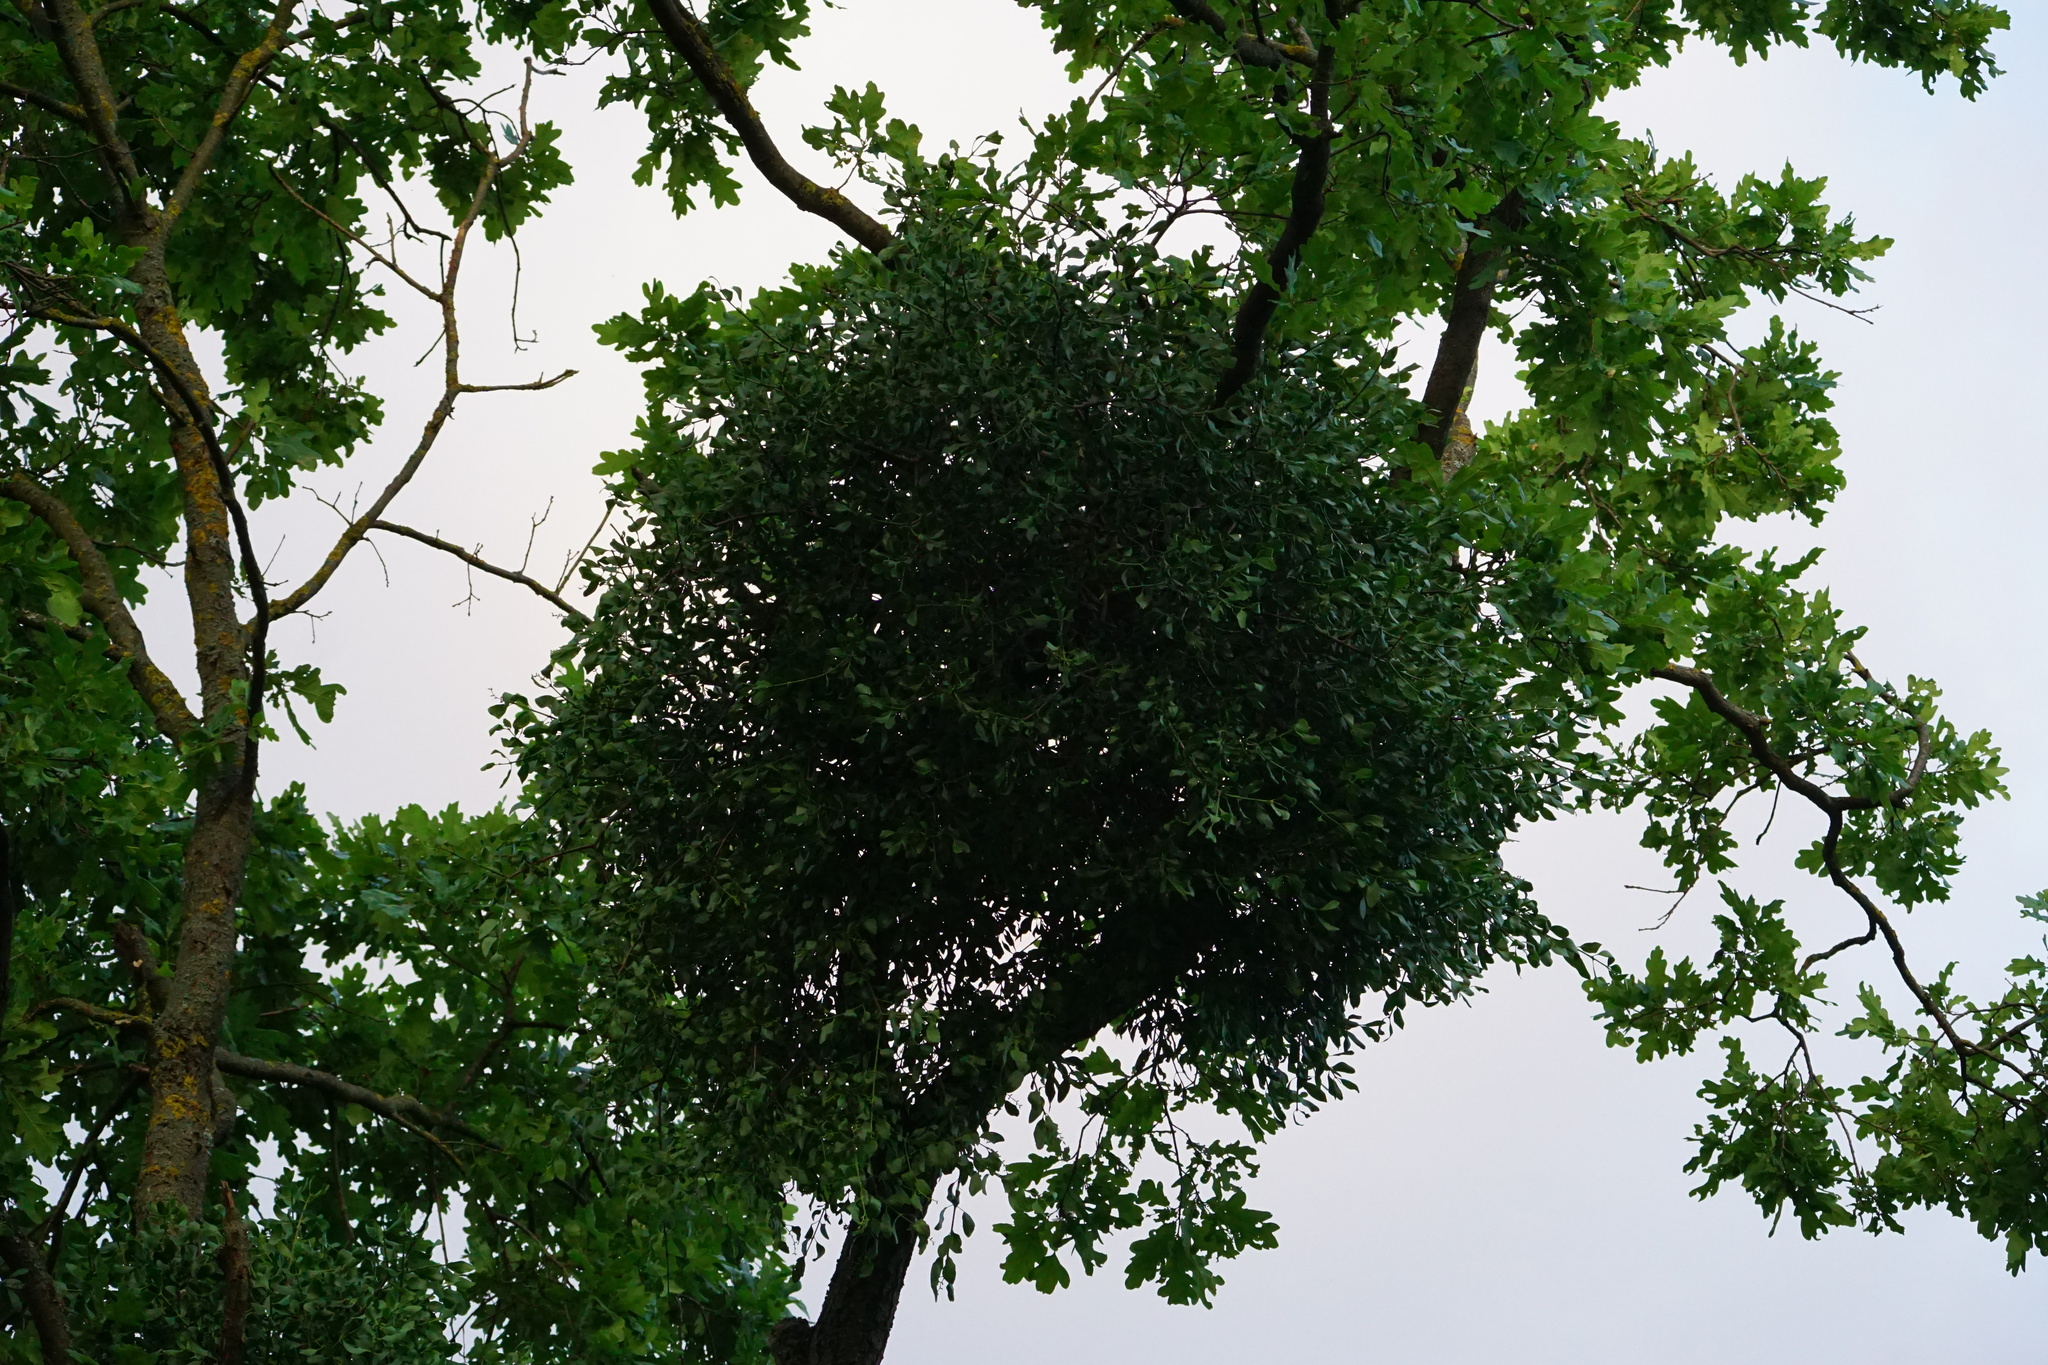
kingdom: Plantae
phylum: Tracheophyta
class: Magnoliopsida
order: Santalales
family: Loranthaceae
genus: Loranthus
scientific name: Loranthus europaeus
